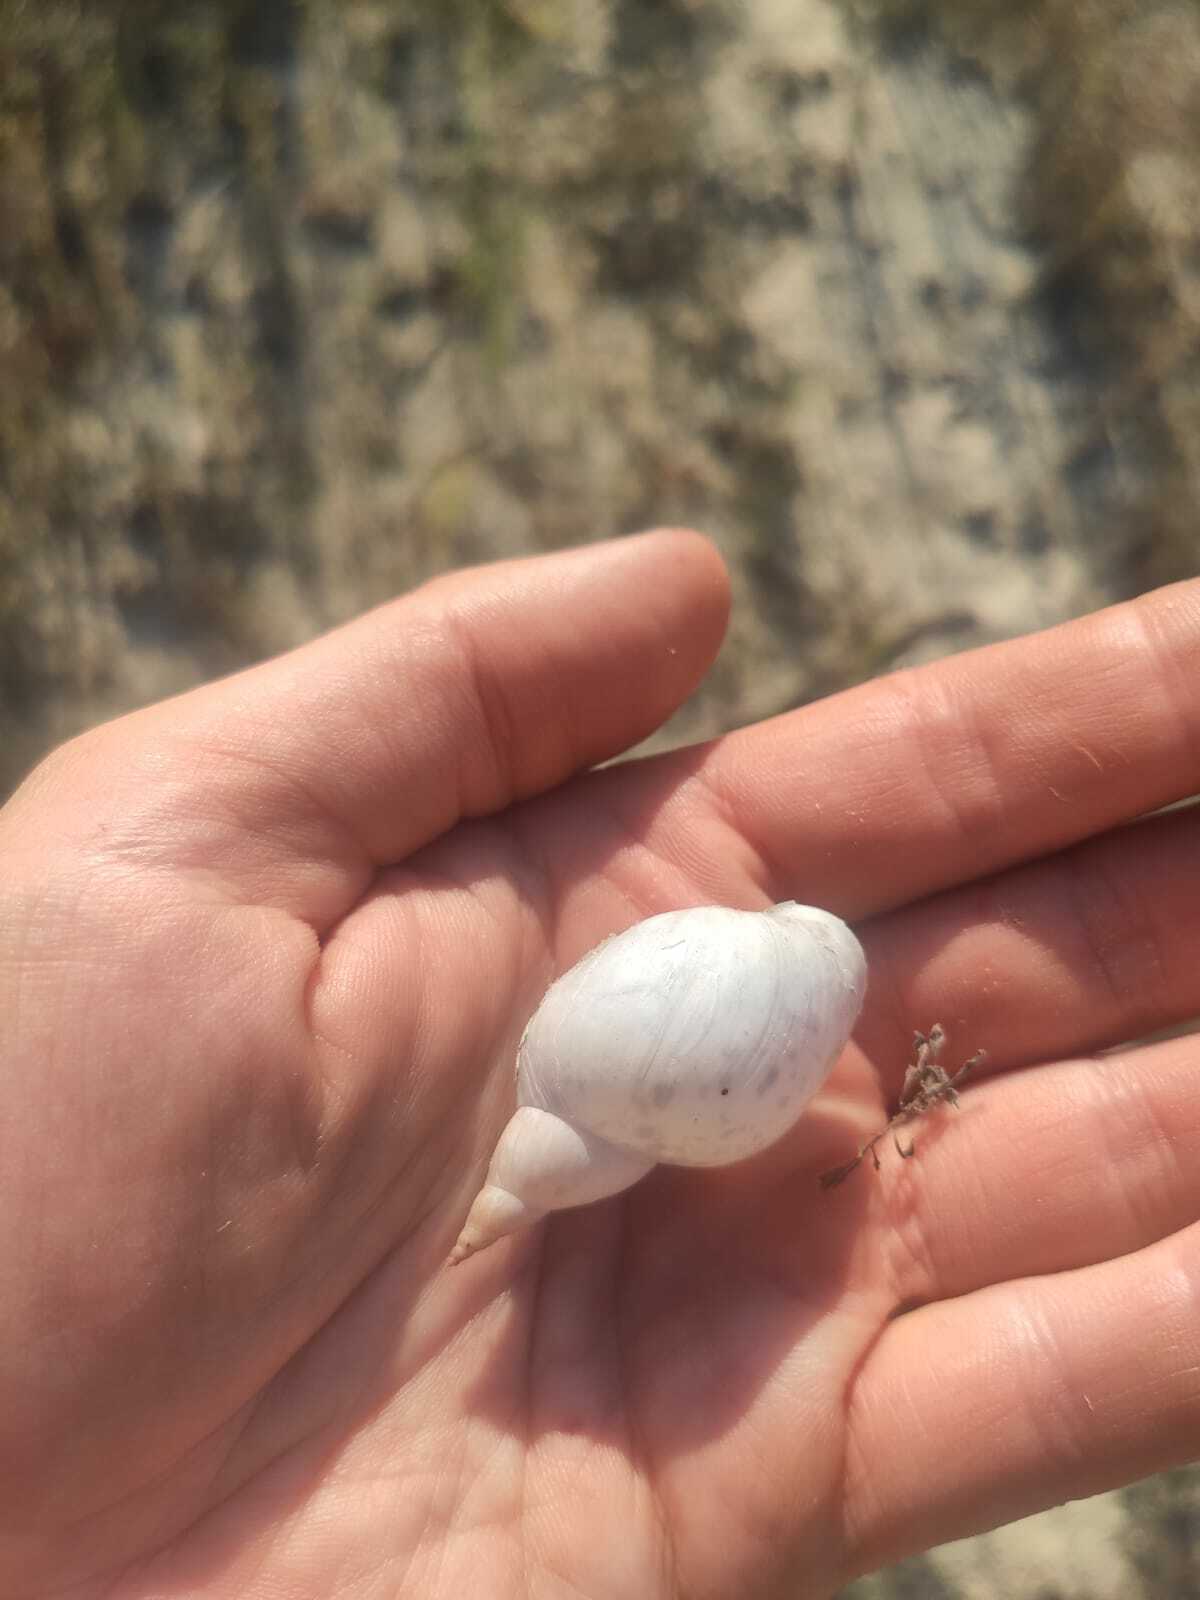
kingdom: Animalia
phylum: Mollusca
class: Gastropoda
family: Lymnaeidae
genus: Lymnaea
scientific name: Lymnaea stagnalis
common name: Great pond snail
